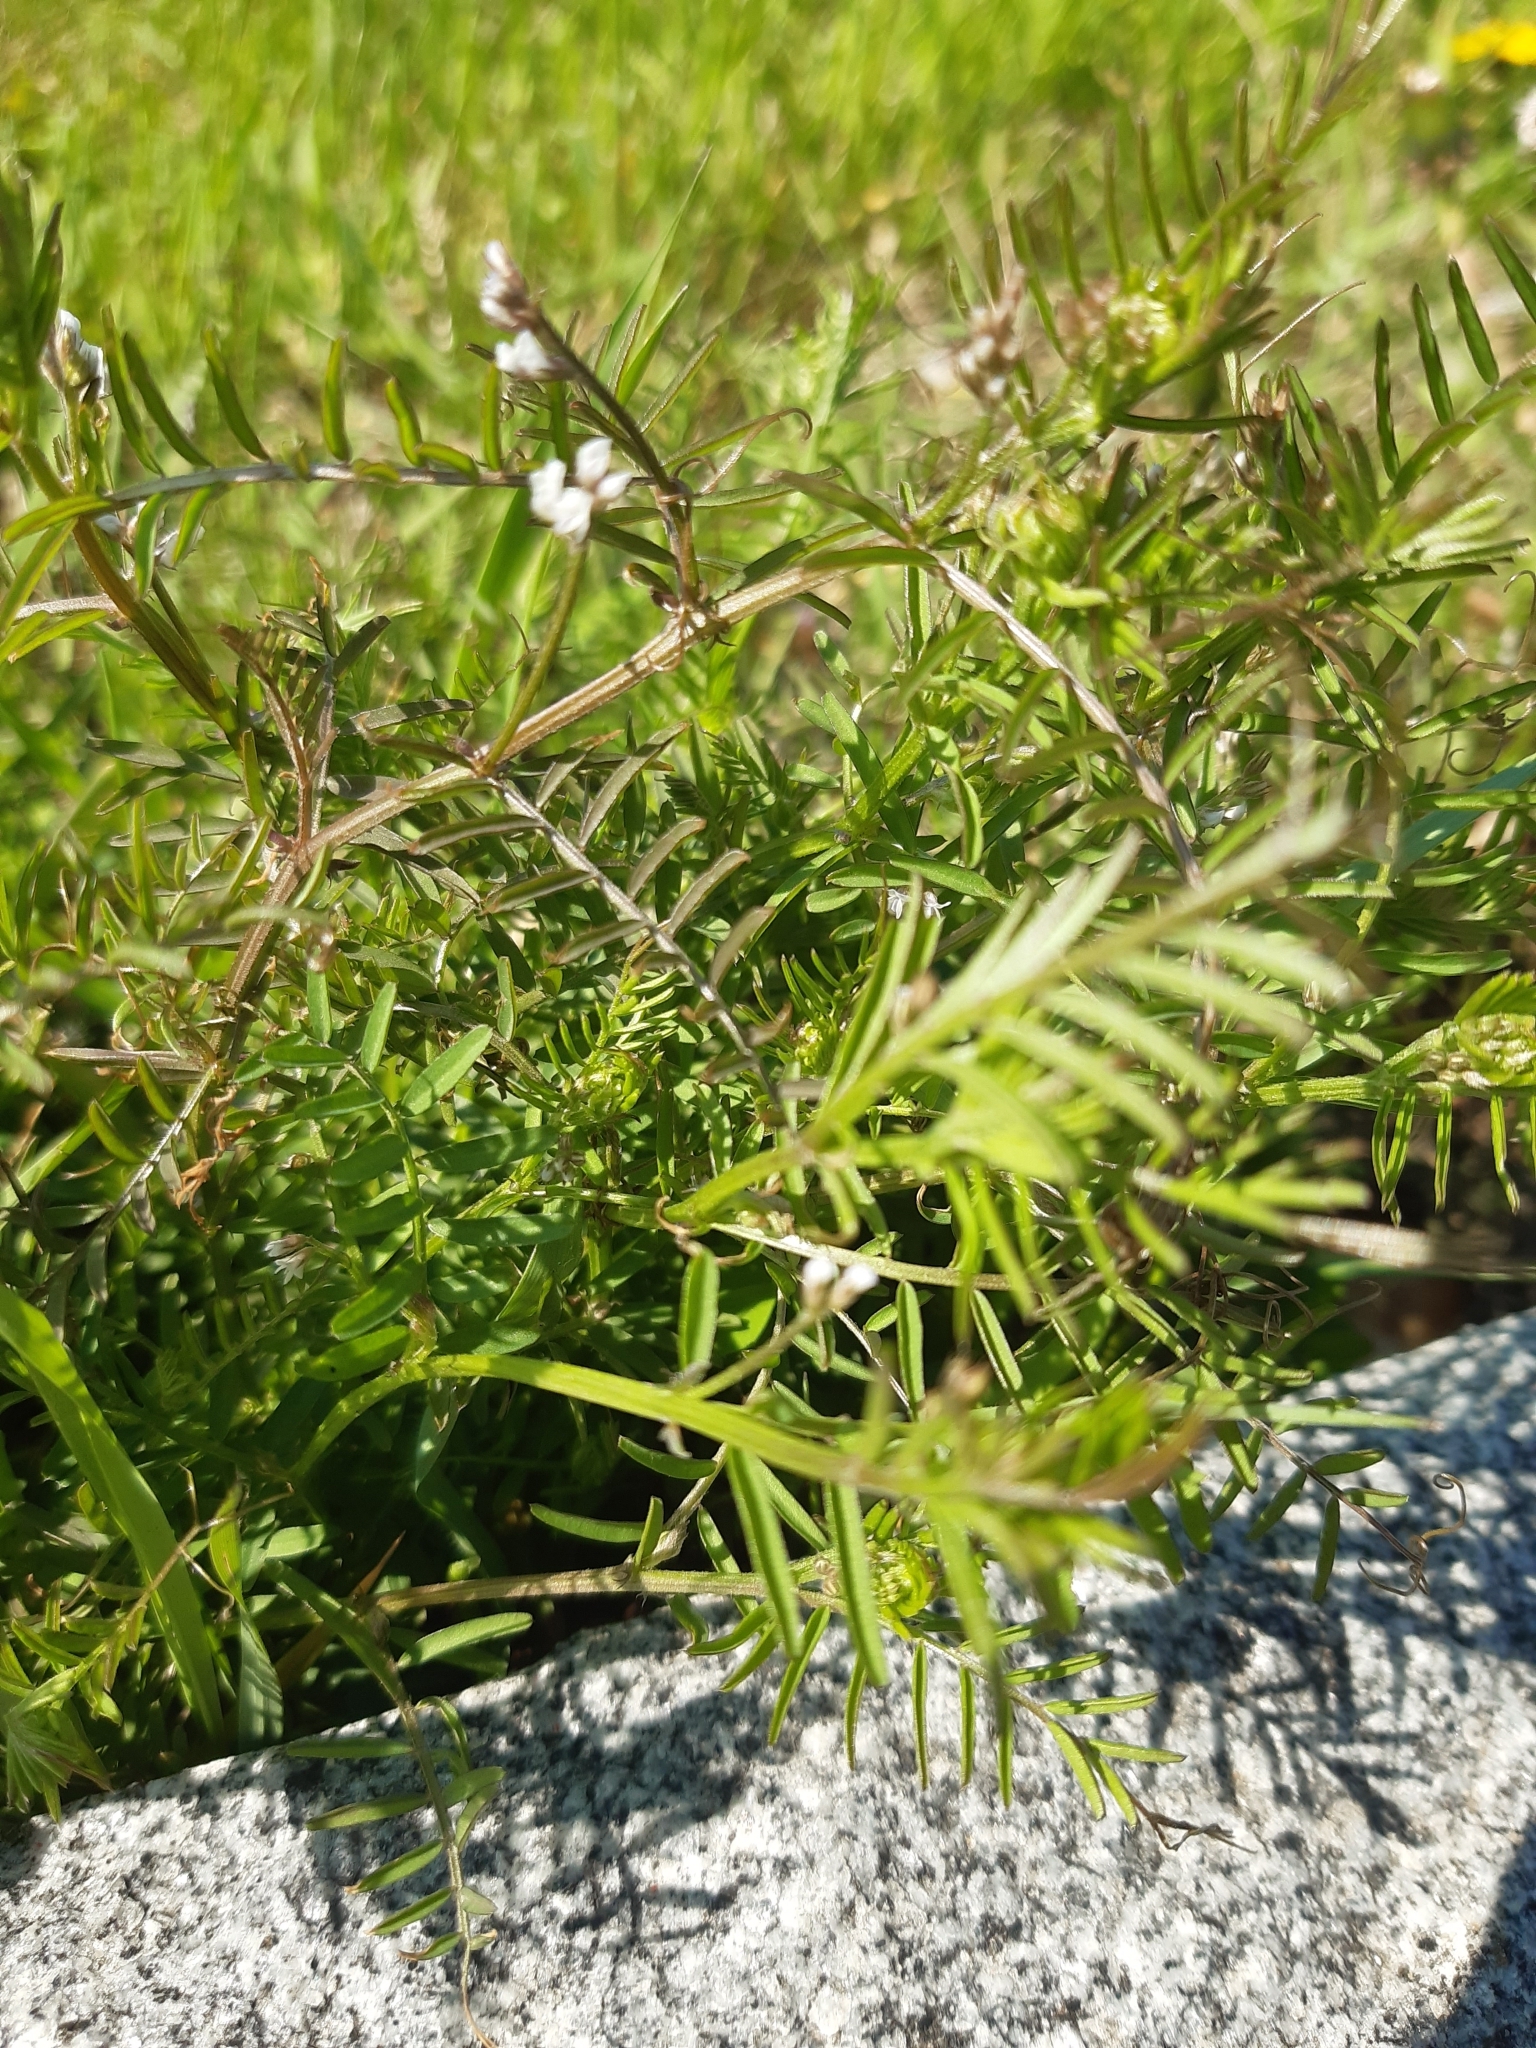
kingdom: Plantae
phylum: Tracheophyta
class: Magnoliopsida
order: Fabales
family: Fabaceae
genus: Vicia
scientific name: Vicia hirsuta
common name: Tiny vetch
